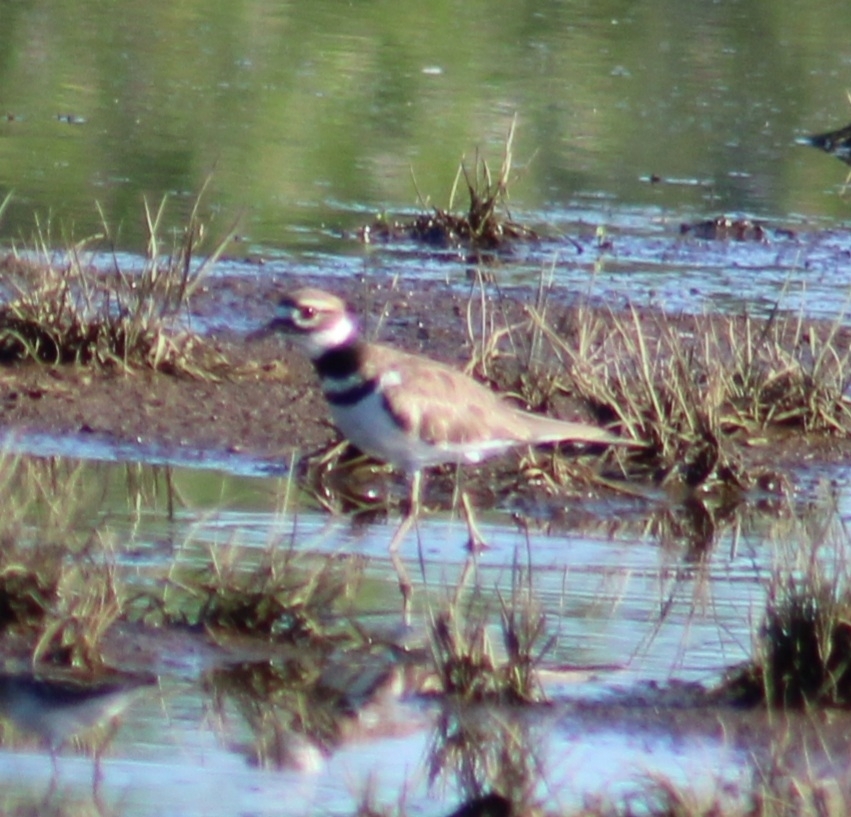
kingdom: Animalia
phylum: Chordata
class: Aves
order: Charadriiformes
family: Charadriidae
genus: Charadrius
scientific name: Charadrius vociferus
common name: Killdeer
